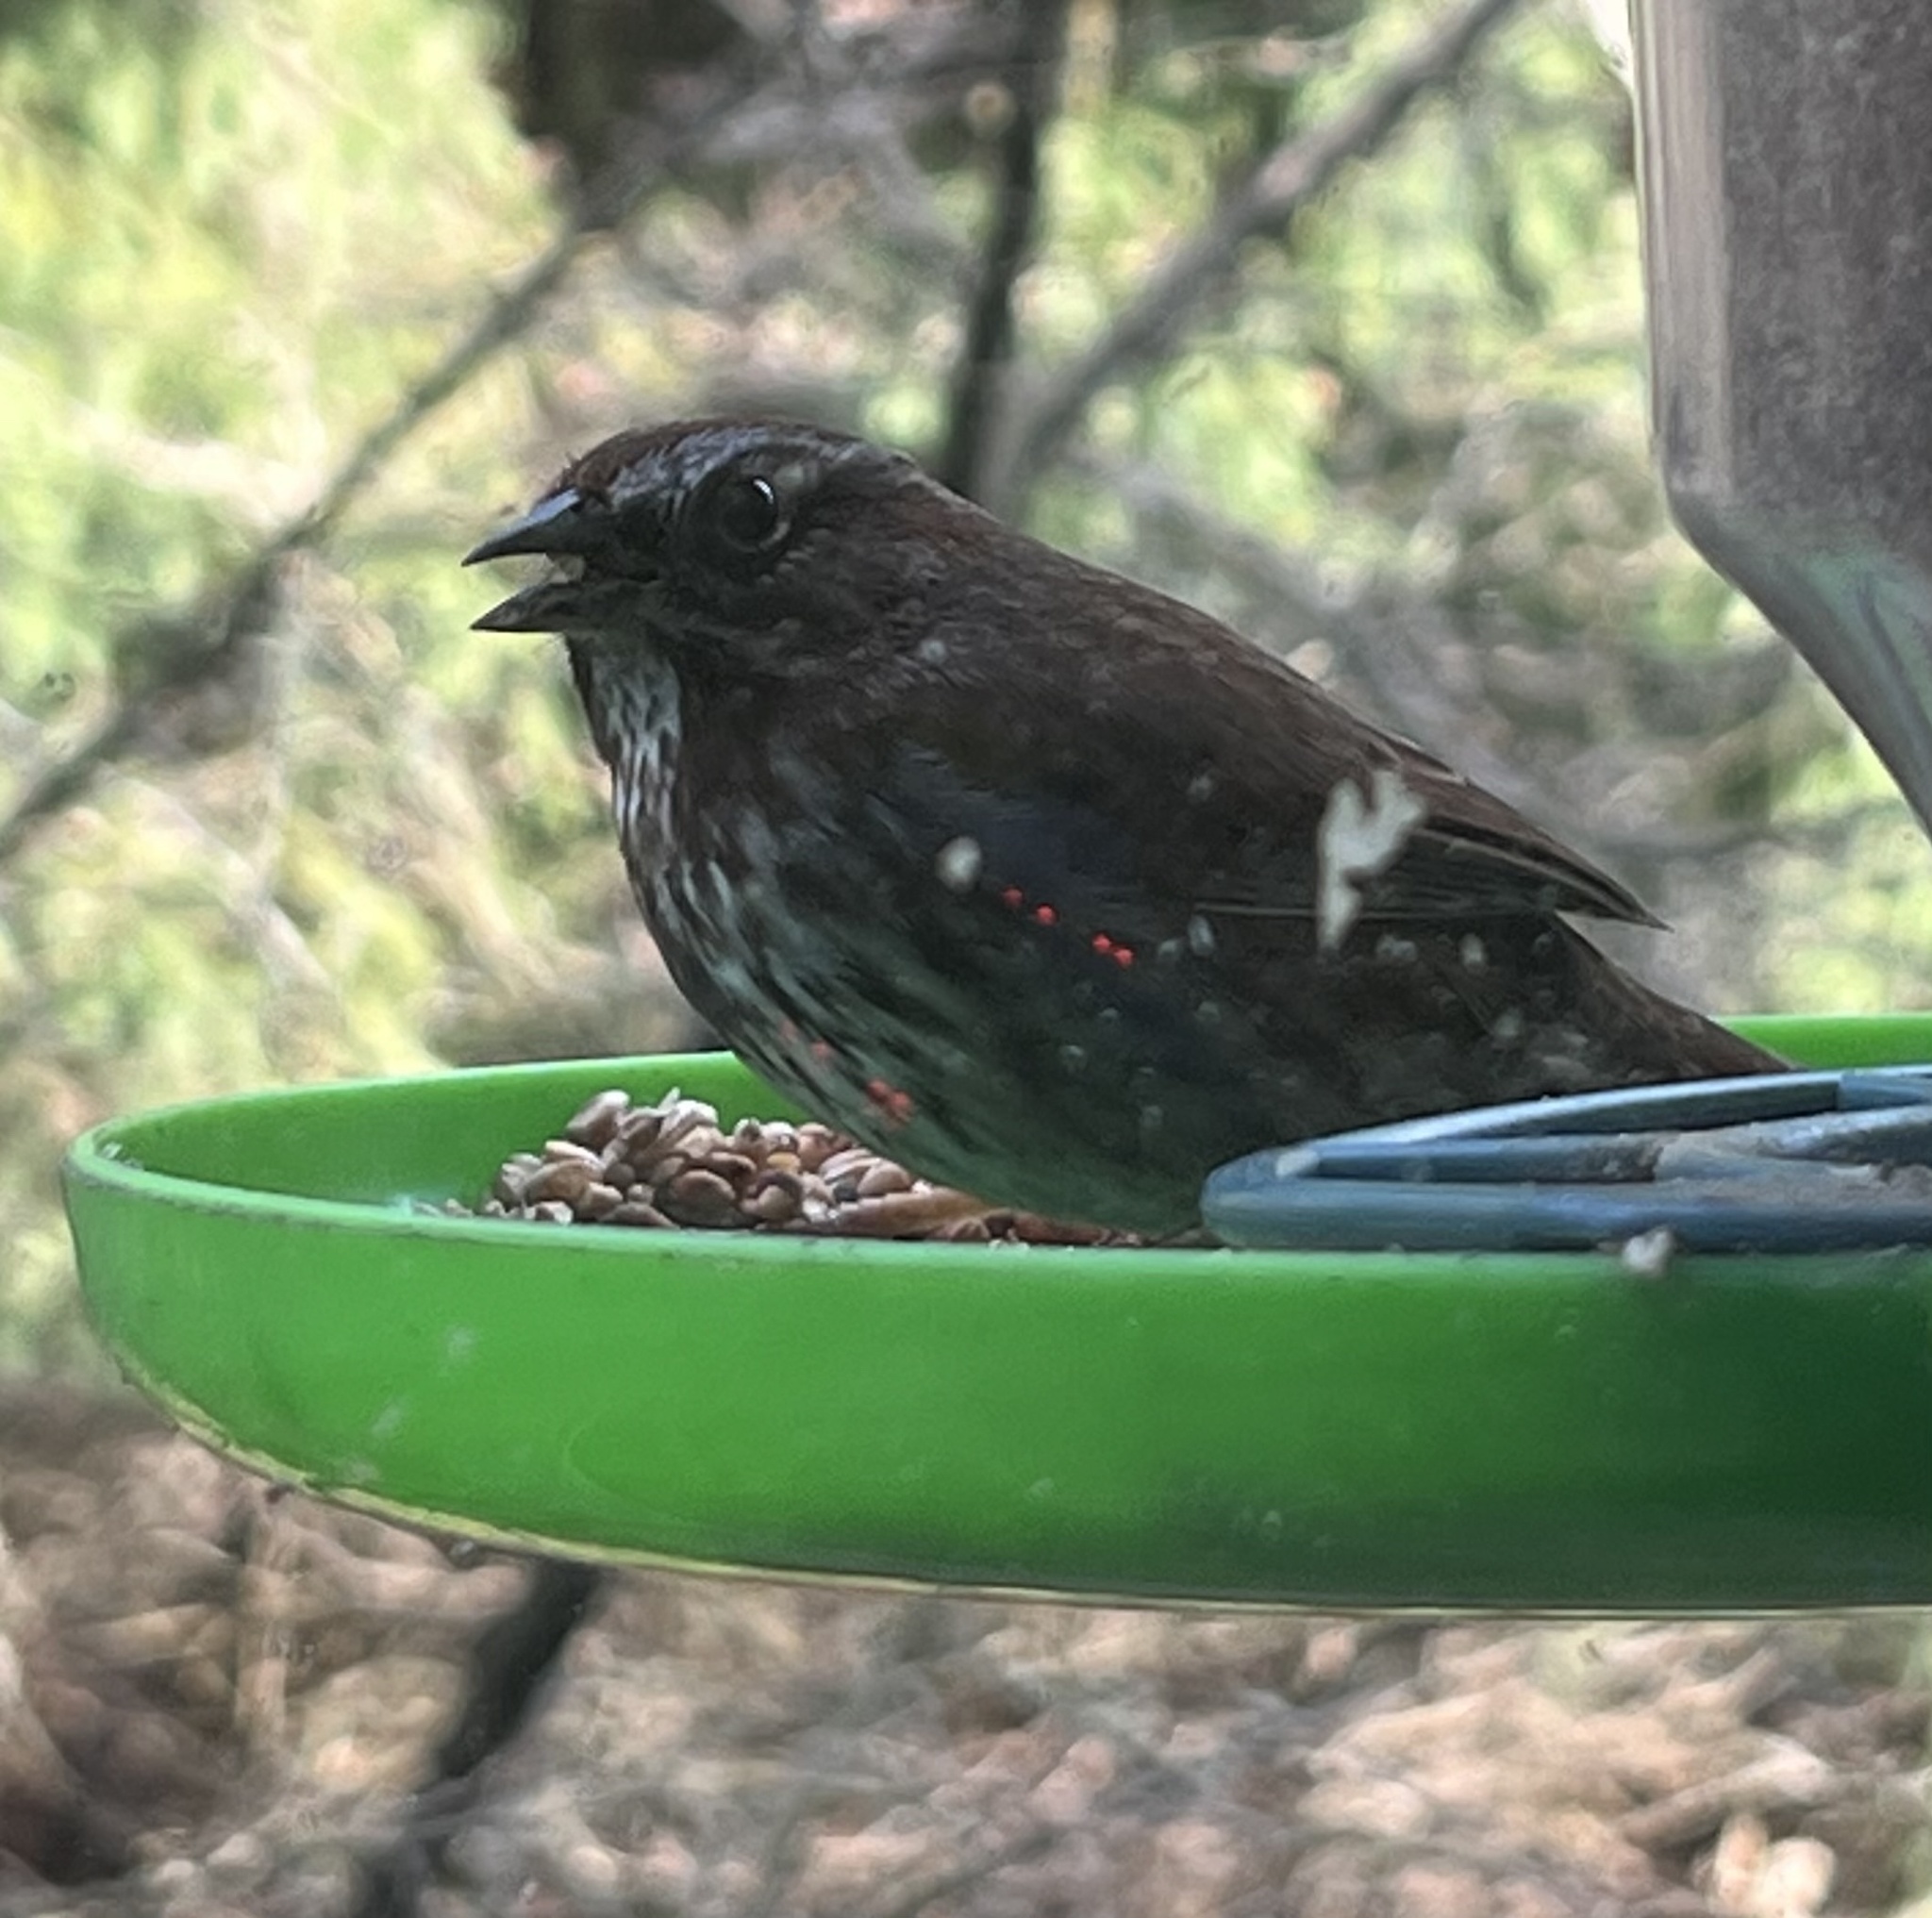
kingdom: Animalia
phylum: Chordata
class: Aves
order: Passeriformes
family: Passerellidae
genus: Melospiza
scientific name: Melospiza melodia
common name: Song sparrow
